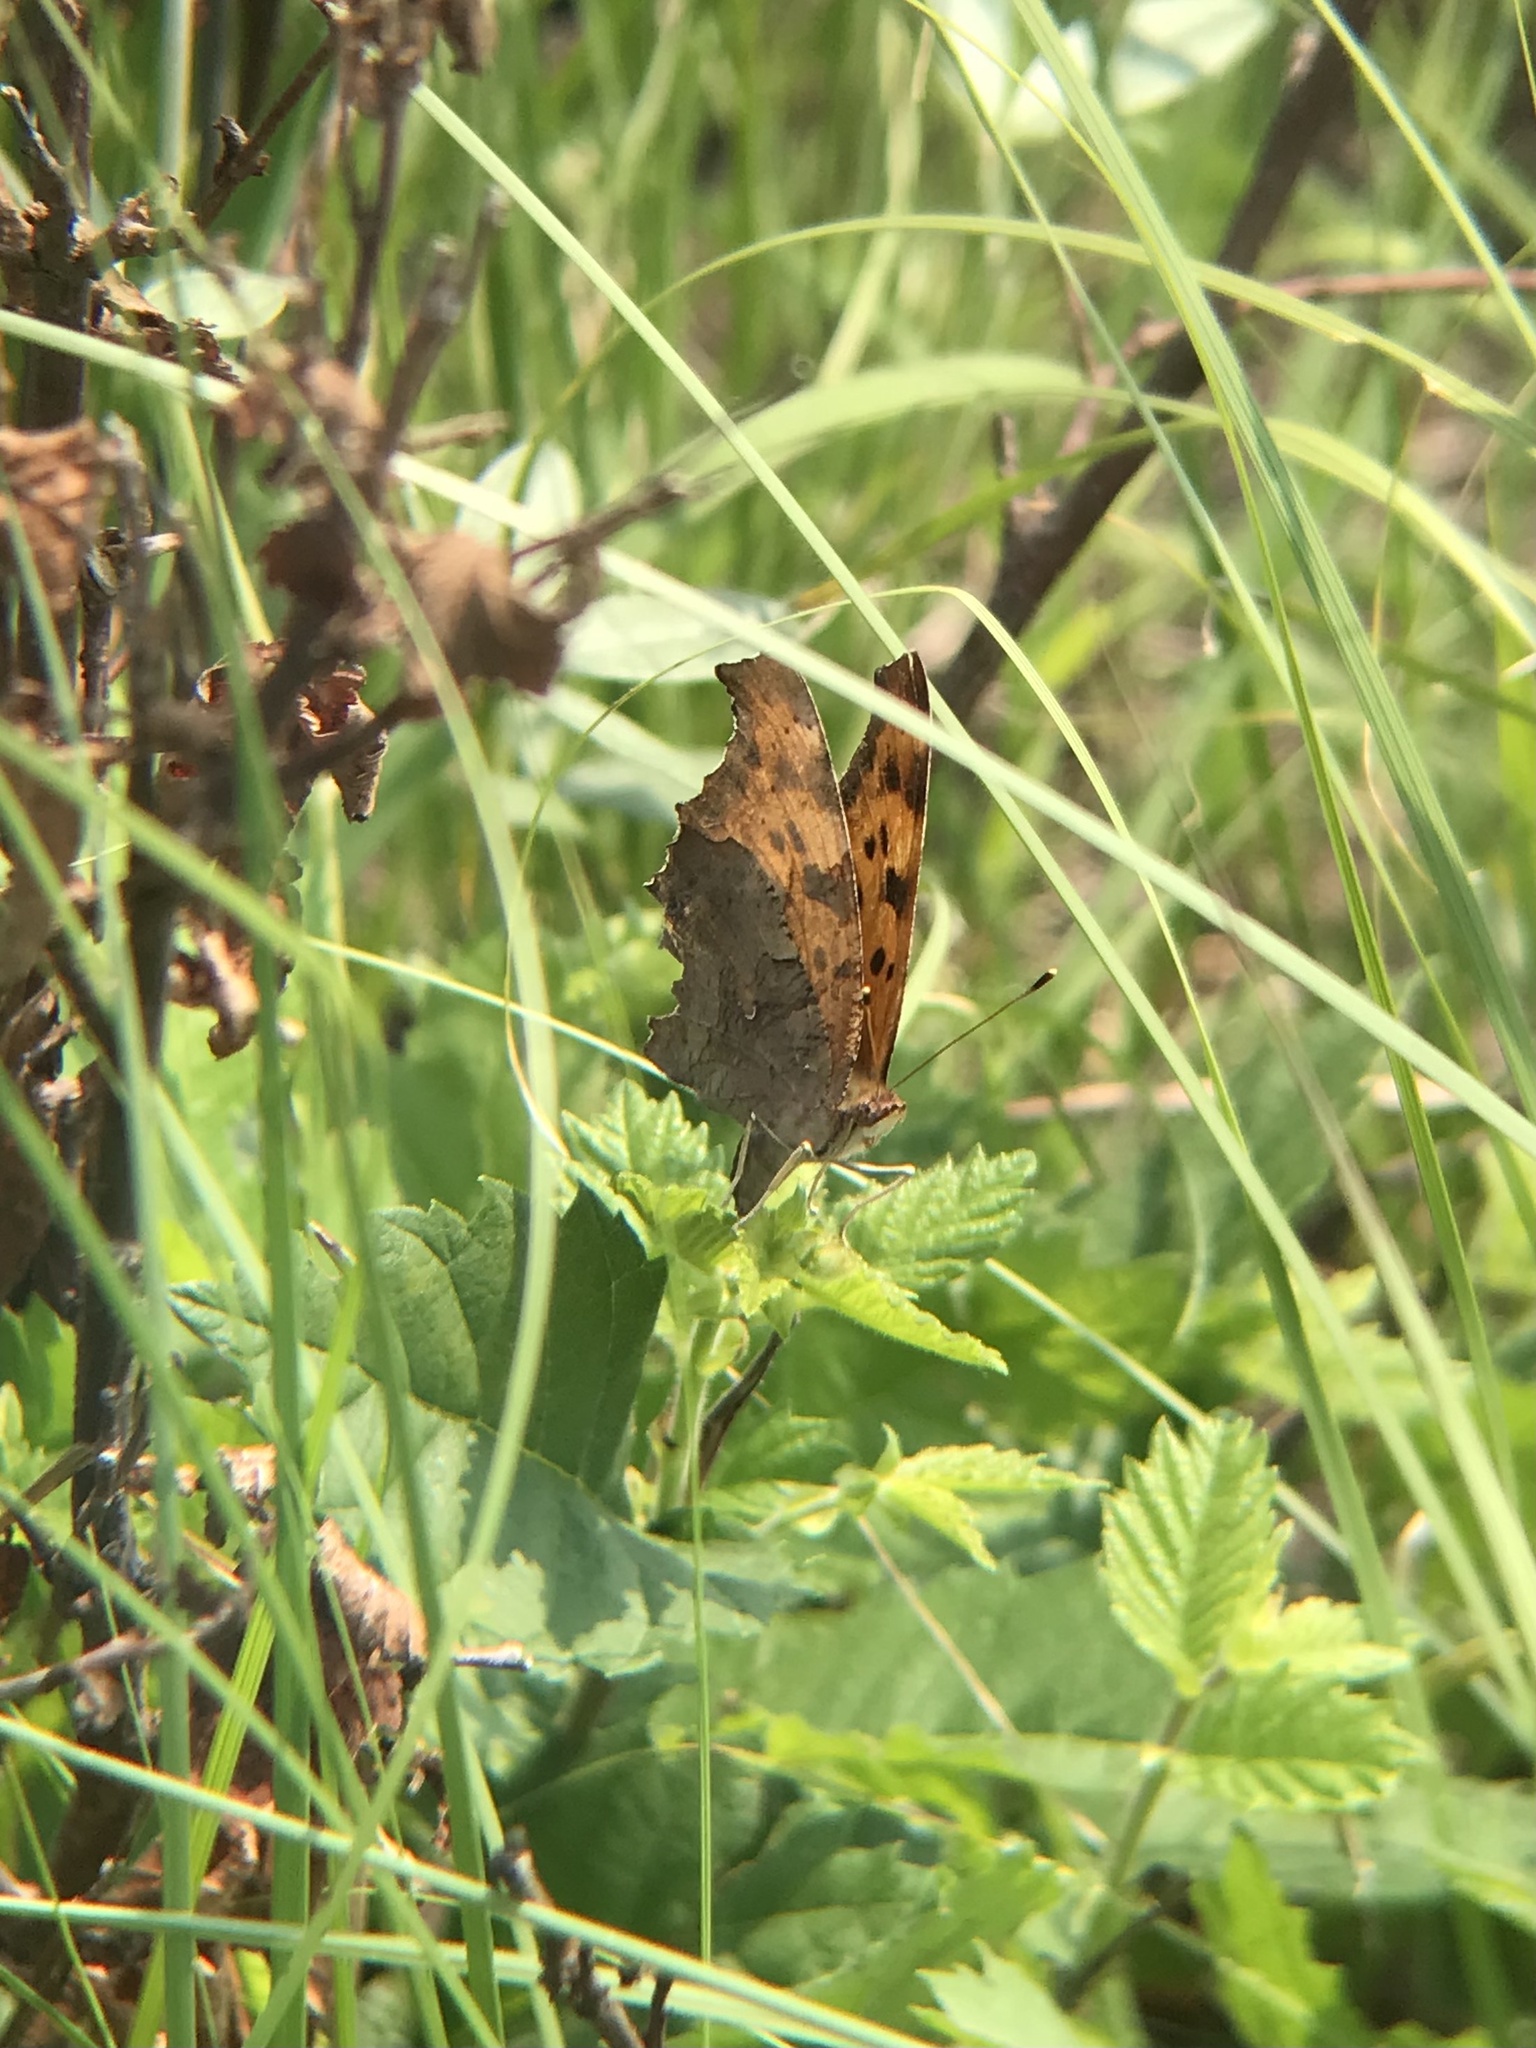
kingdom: Animalia
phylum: Arthropoda
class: Insecta
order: Lepidoptera
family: Nymphalidae
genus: Polygonia
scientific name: Polygonia interrogationis
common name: Question mark
